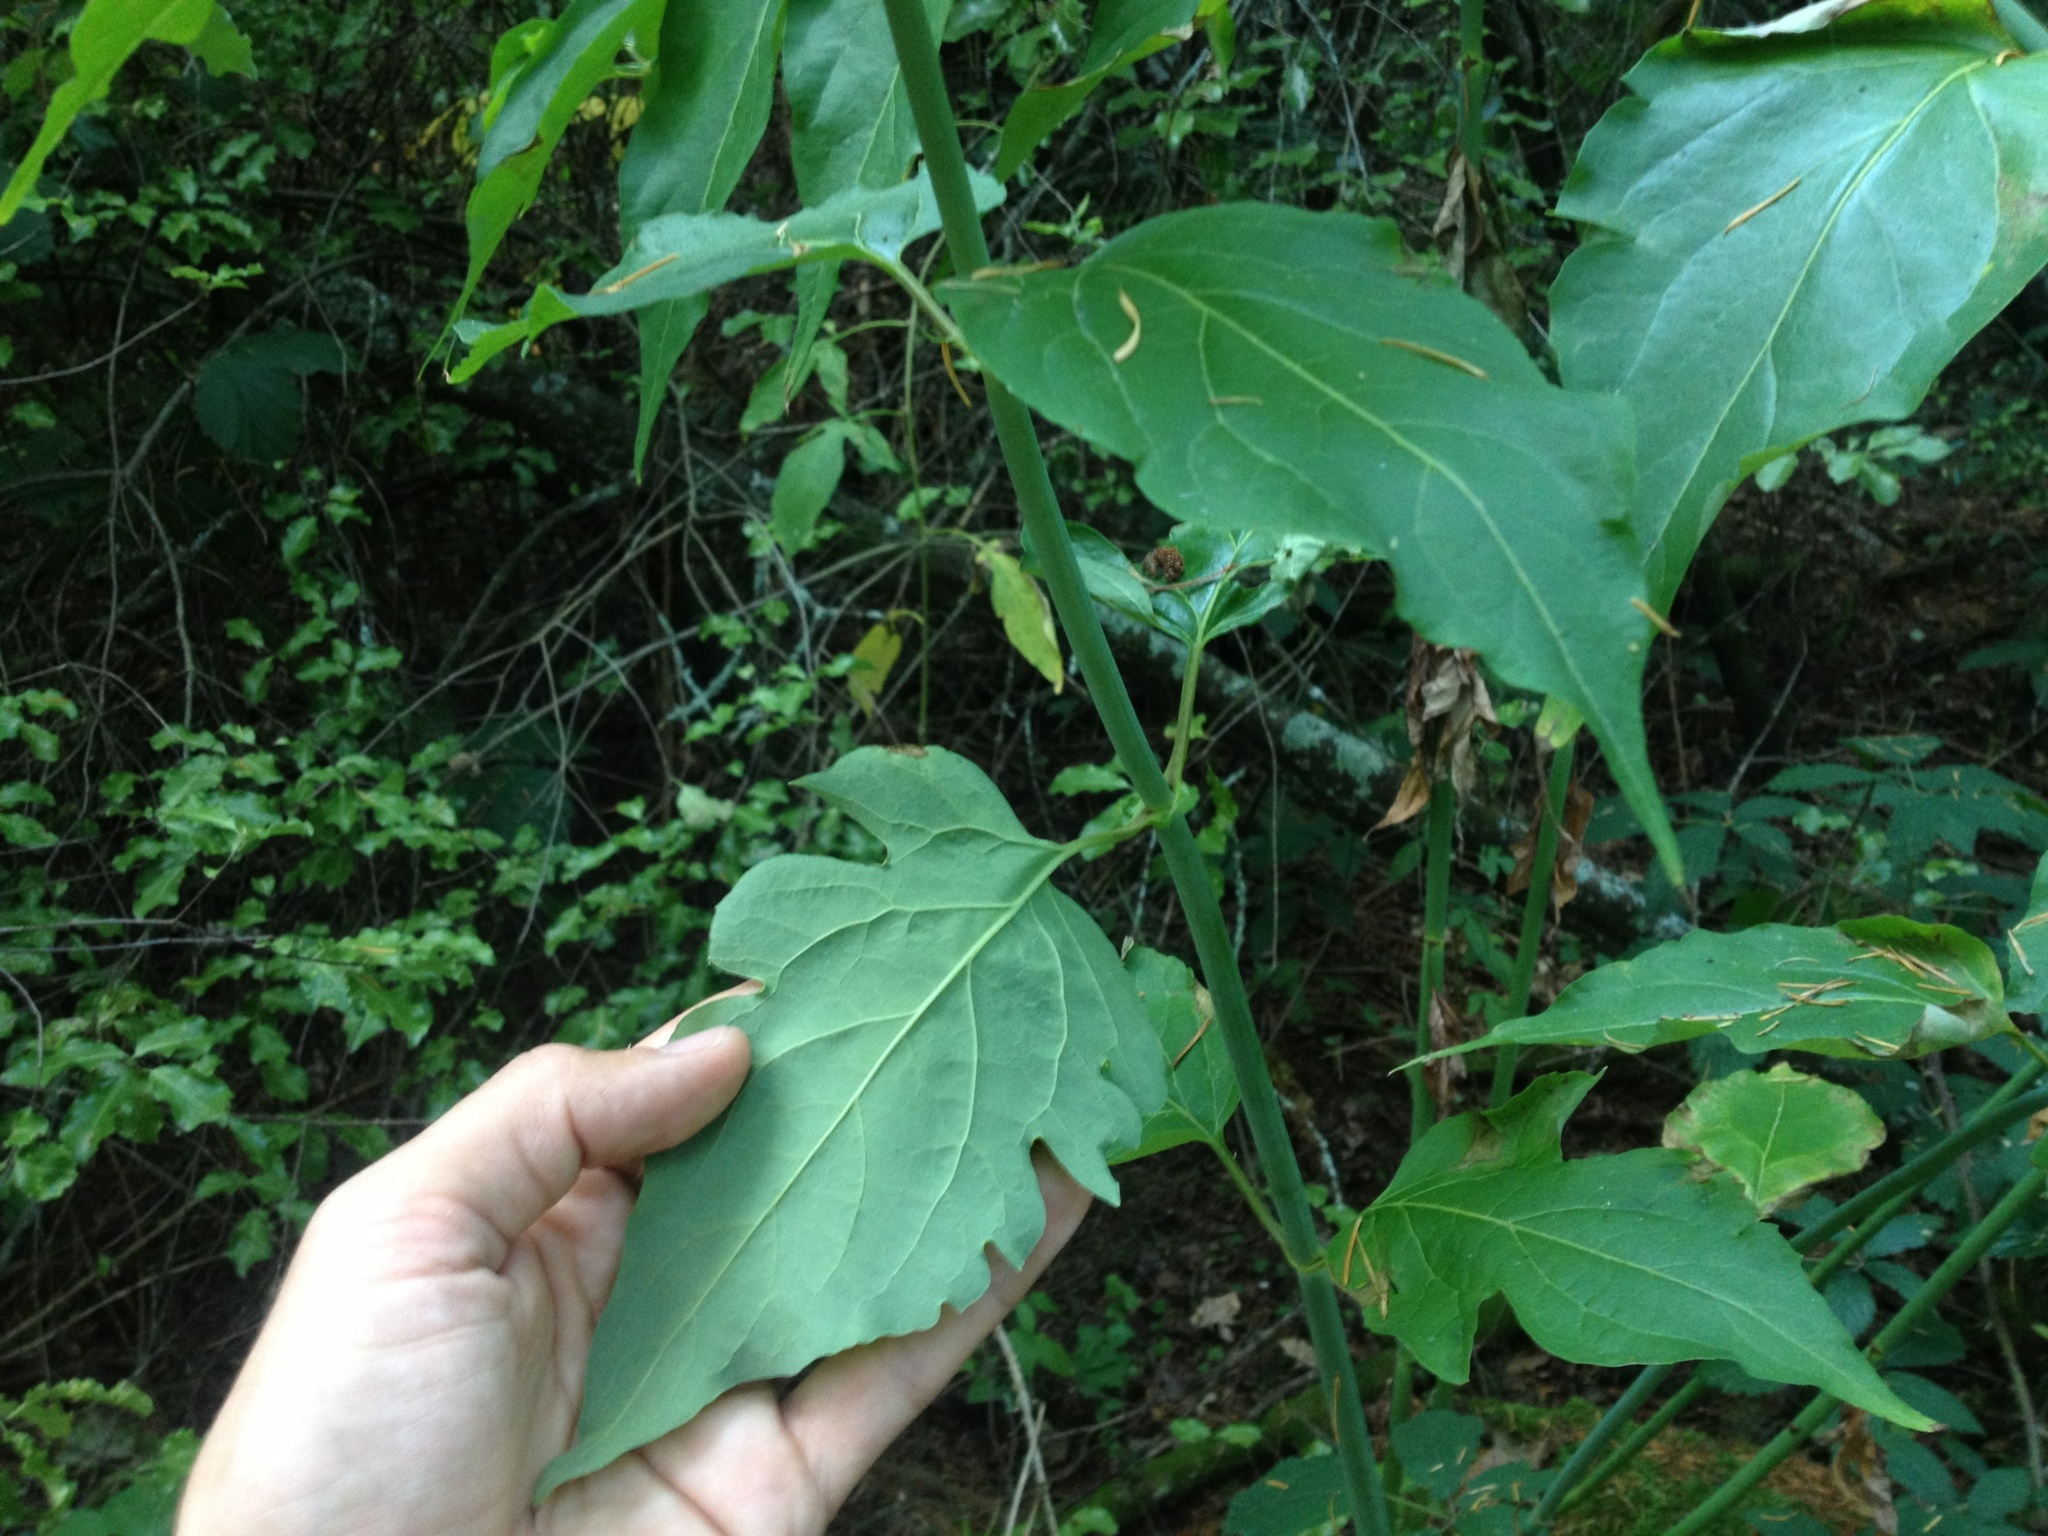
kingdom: Plantae
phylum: Tracheophyta
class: Magnoliopsida
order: Dipsacales
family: Caprifoliaceae
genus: Leycesteria
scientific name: Leycesteria formosa
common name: Himalayan honeysuckle
